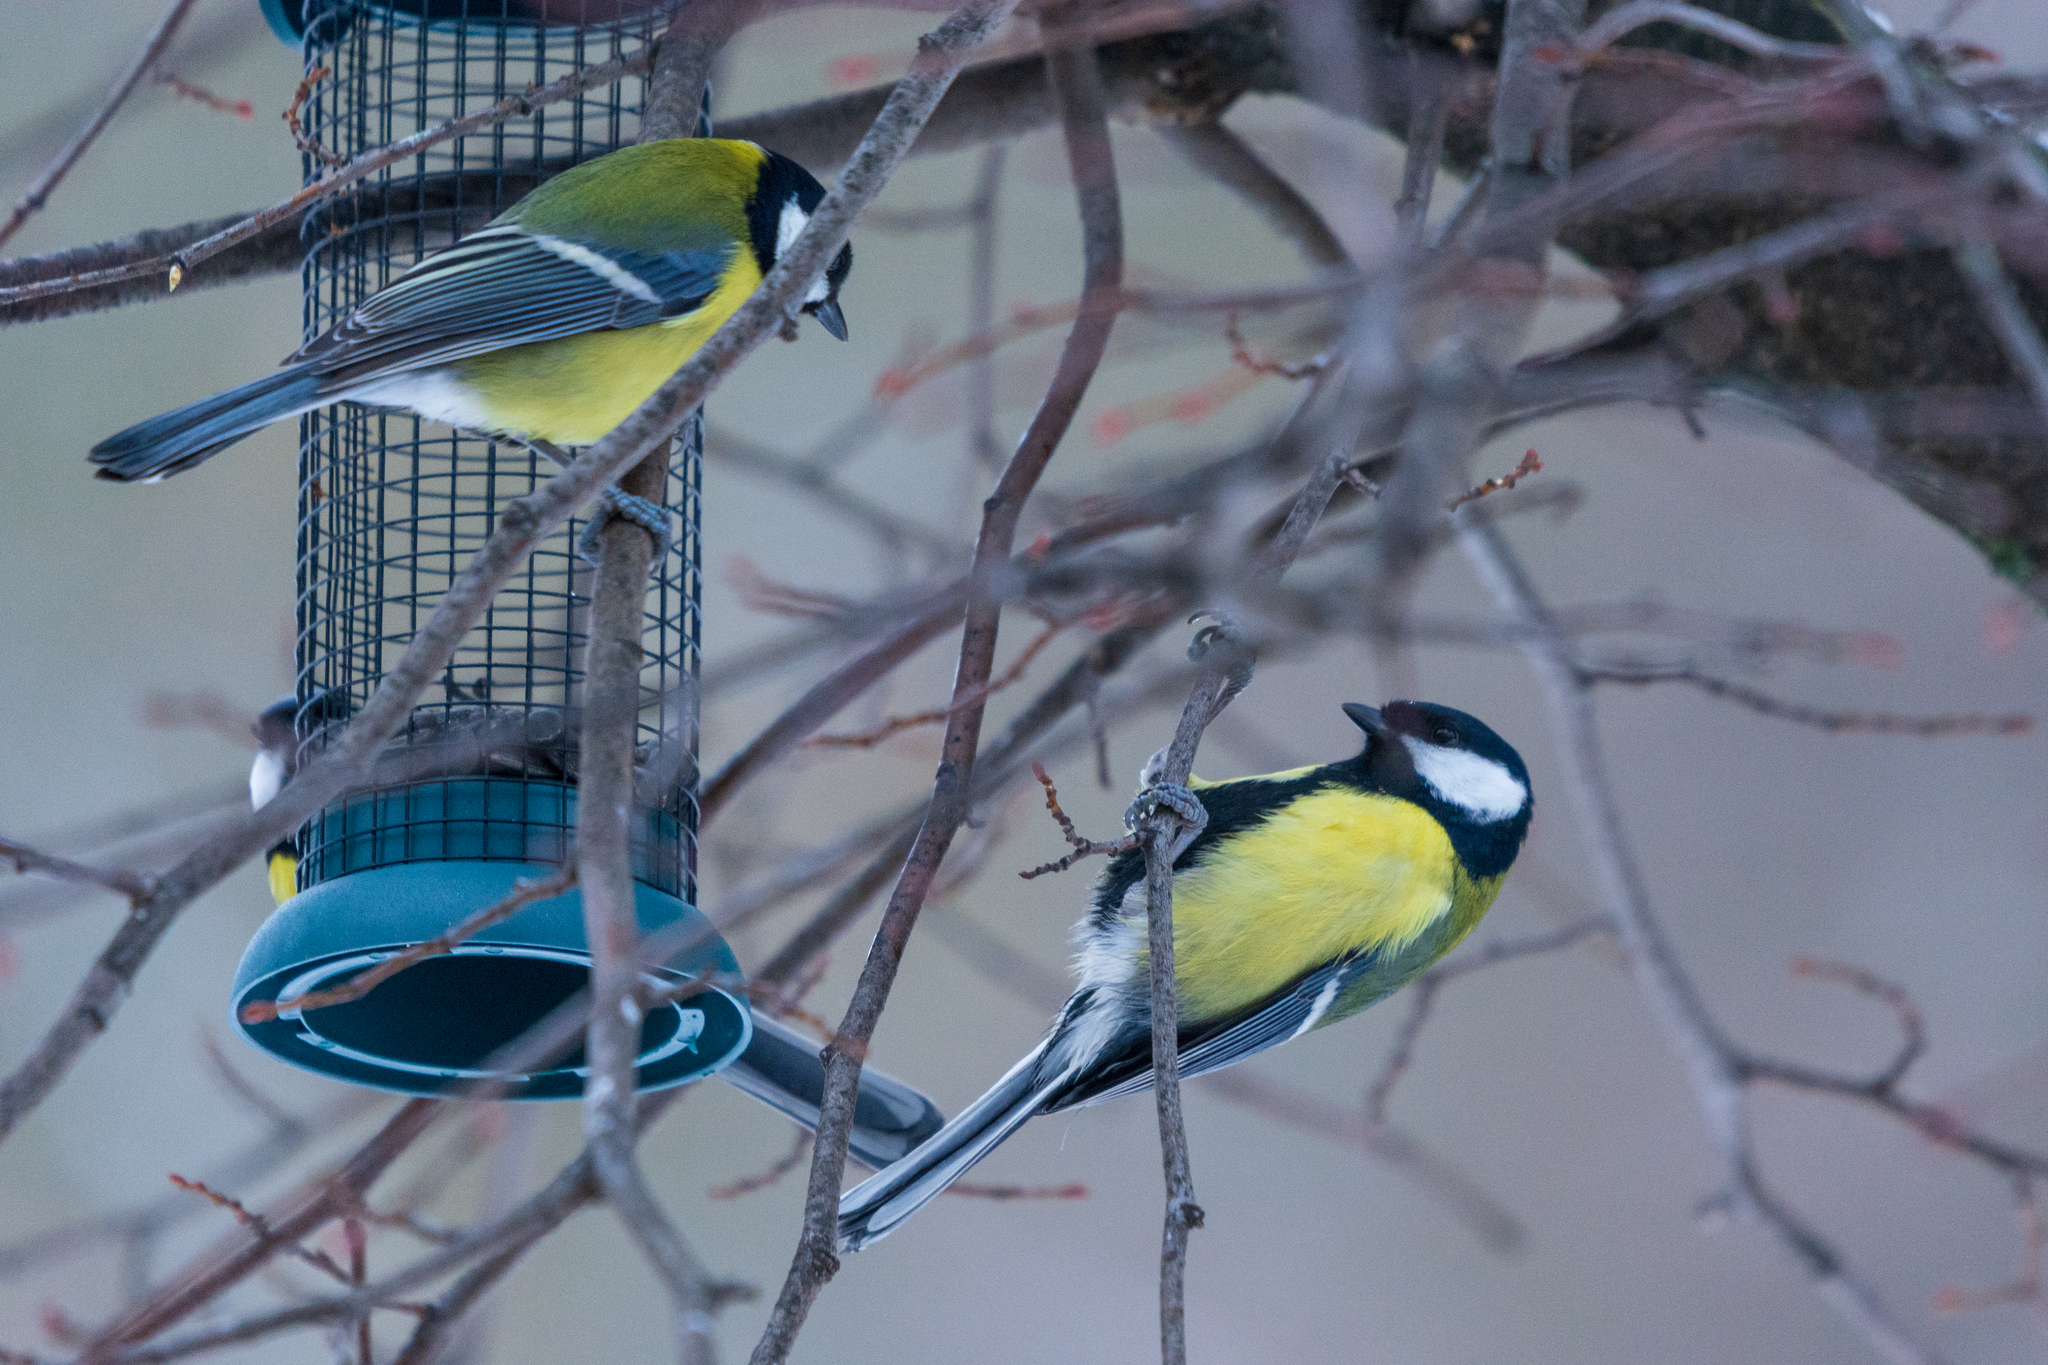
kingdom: Animalia
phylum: Chordata
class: Aves
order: Passeriformes
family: Paridae
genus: Parus
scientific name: Parus major
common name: Great tit
